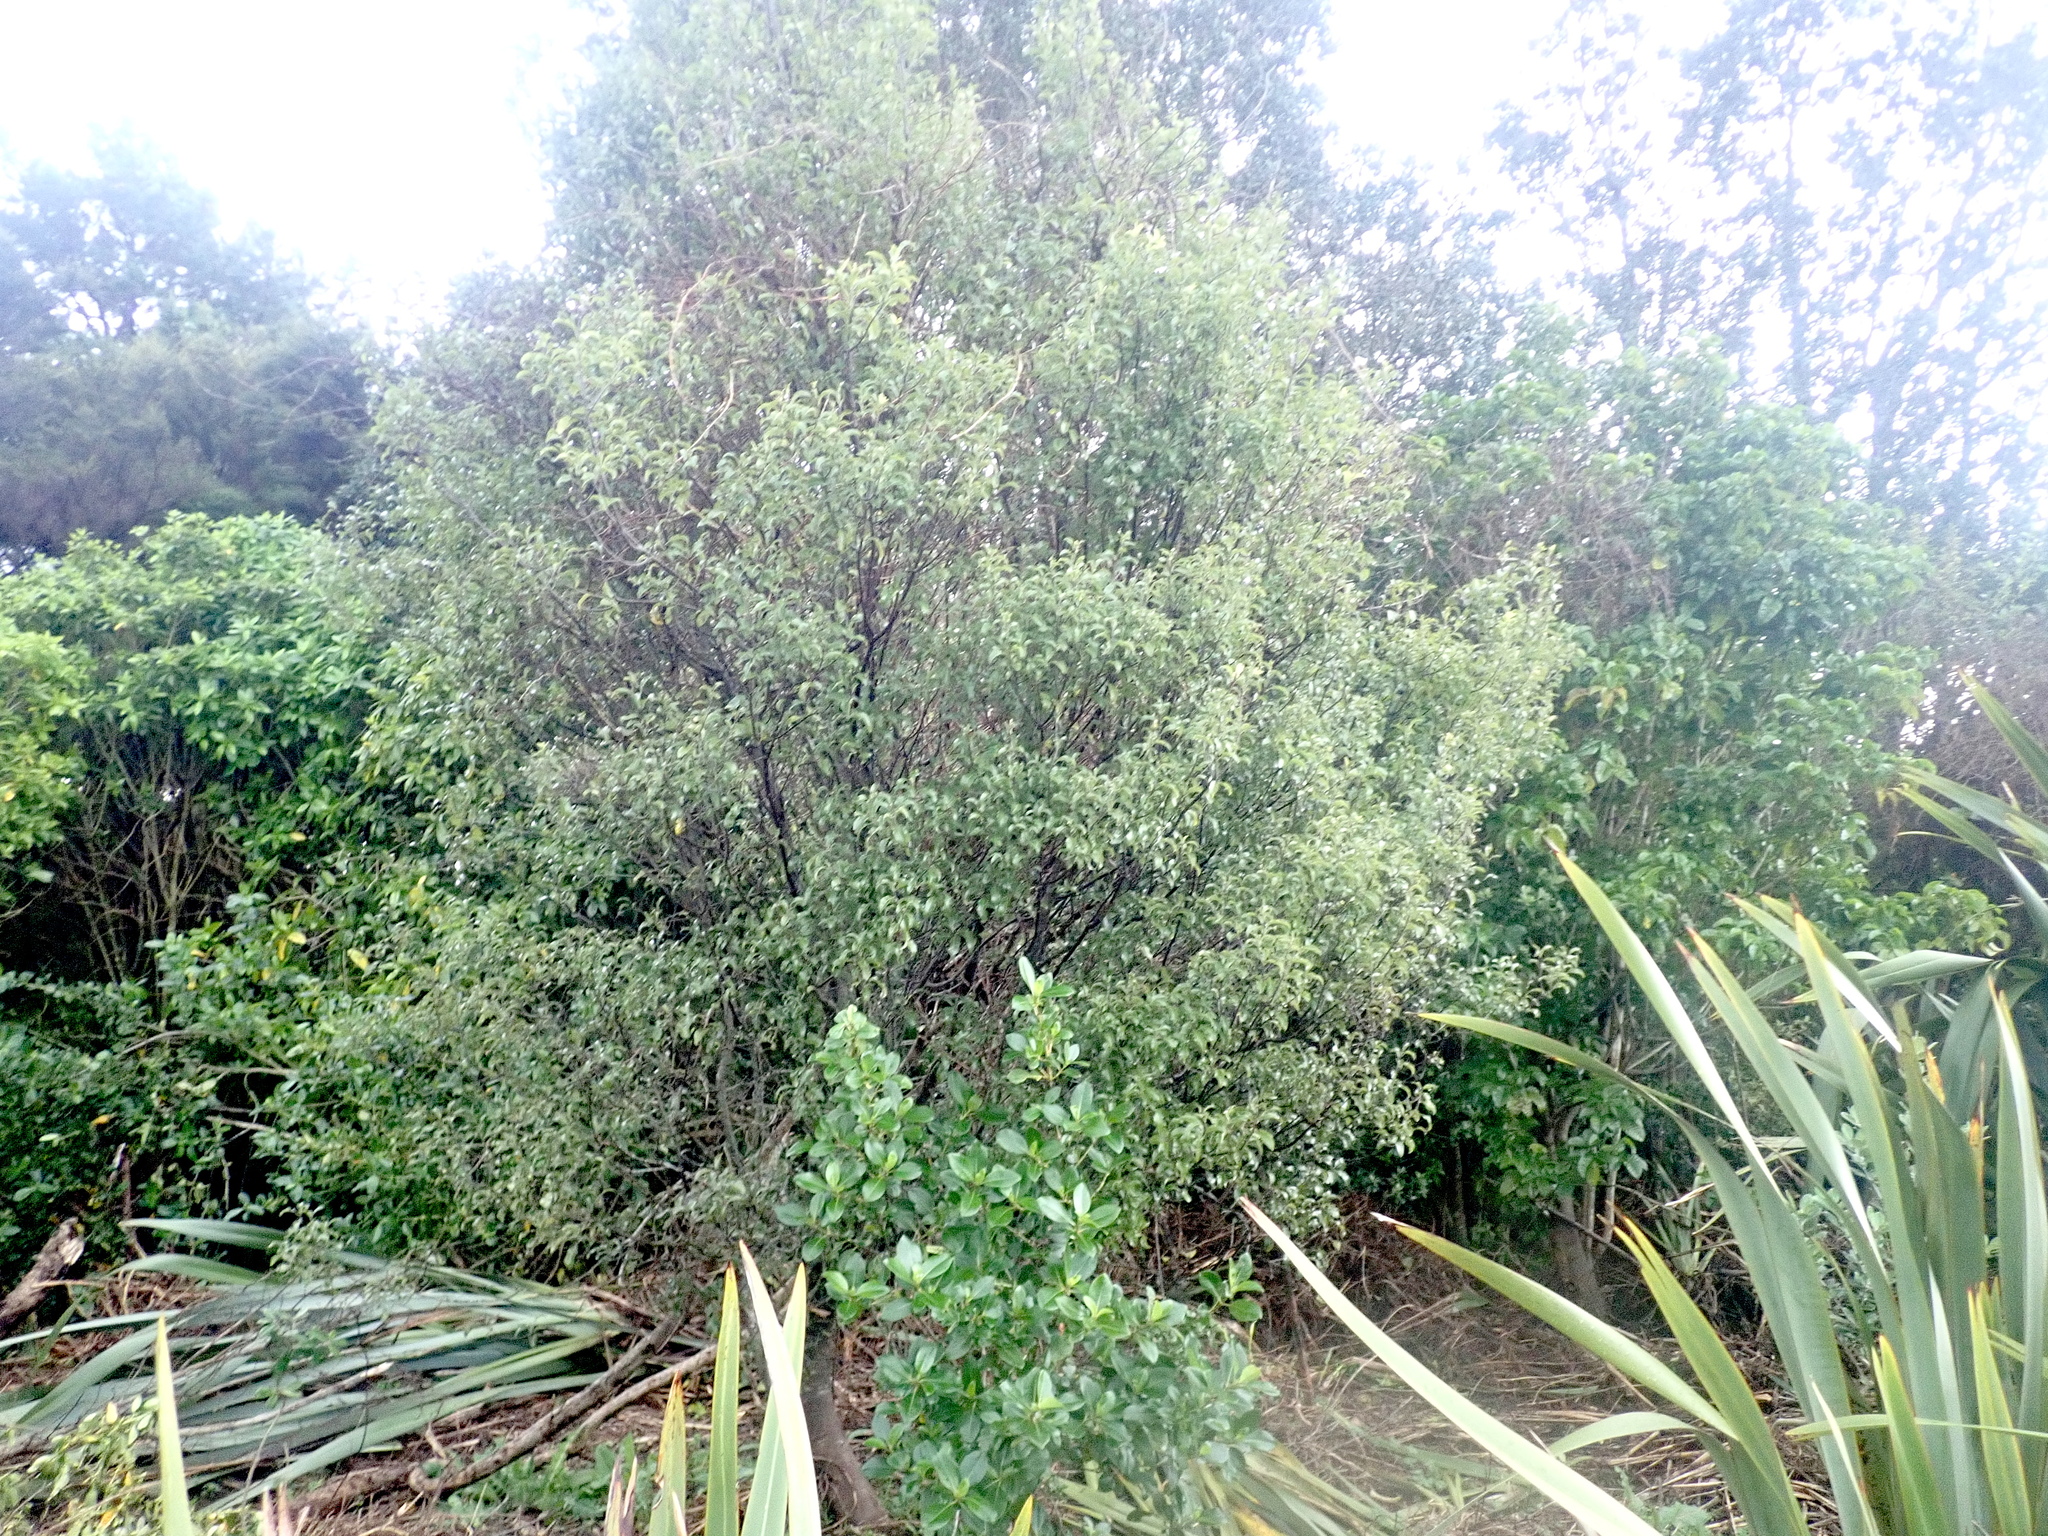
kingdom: Plantae
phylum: Tracheophyta
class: Magnoliopsida
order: Apiales
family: Pittosporaceae
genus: Pittosporum
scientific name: Pittosporum tenuifolium
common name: Kohuhu
